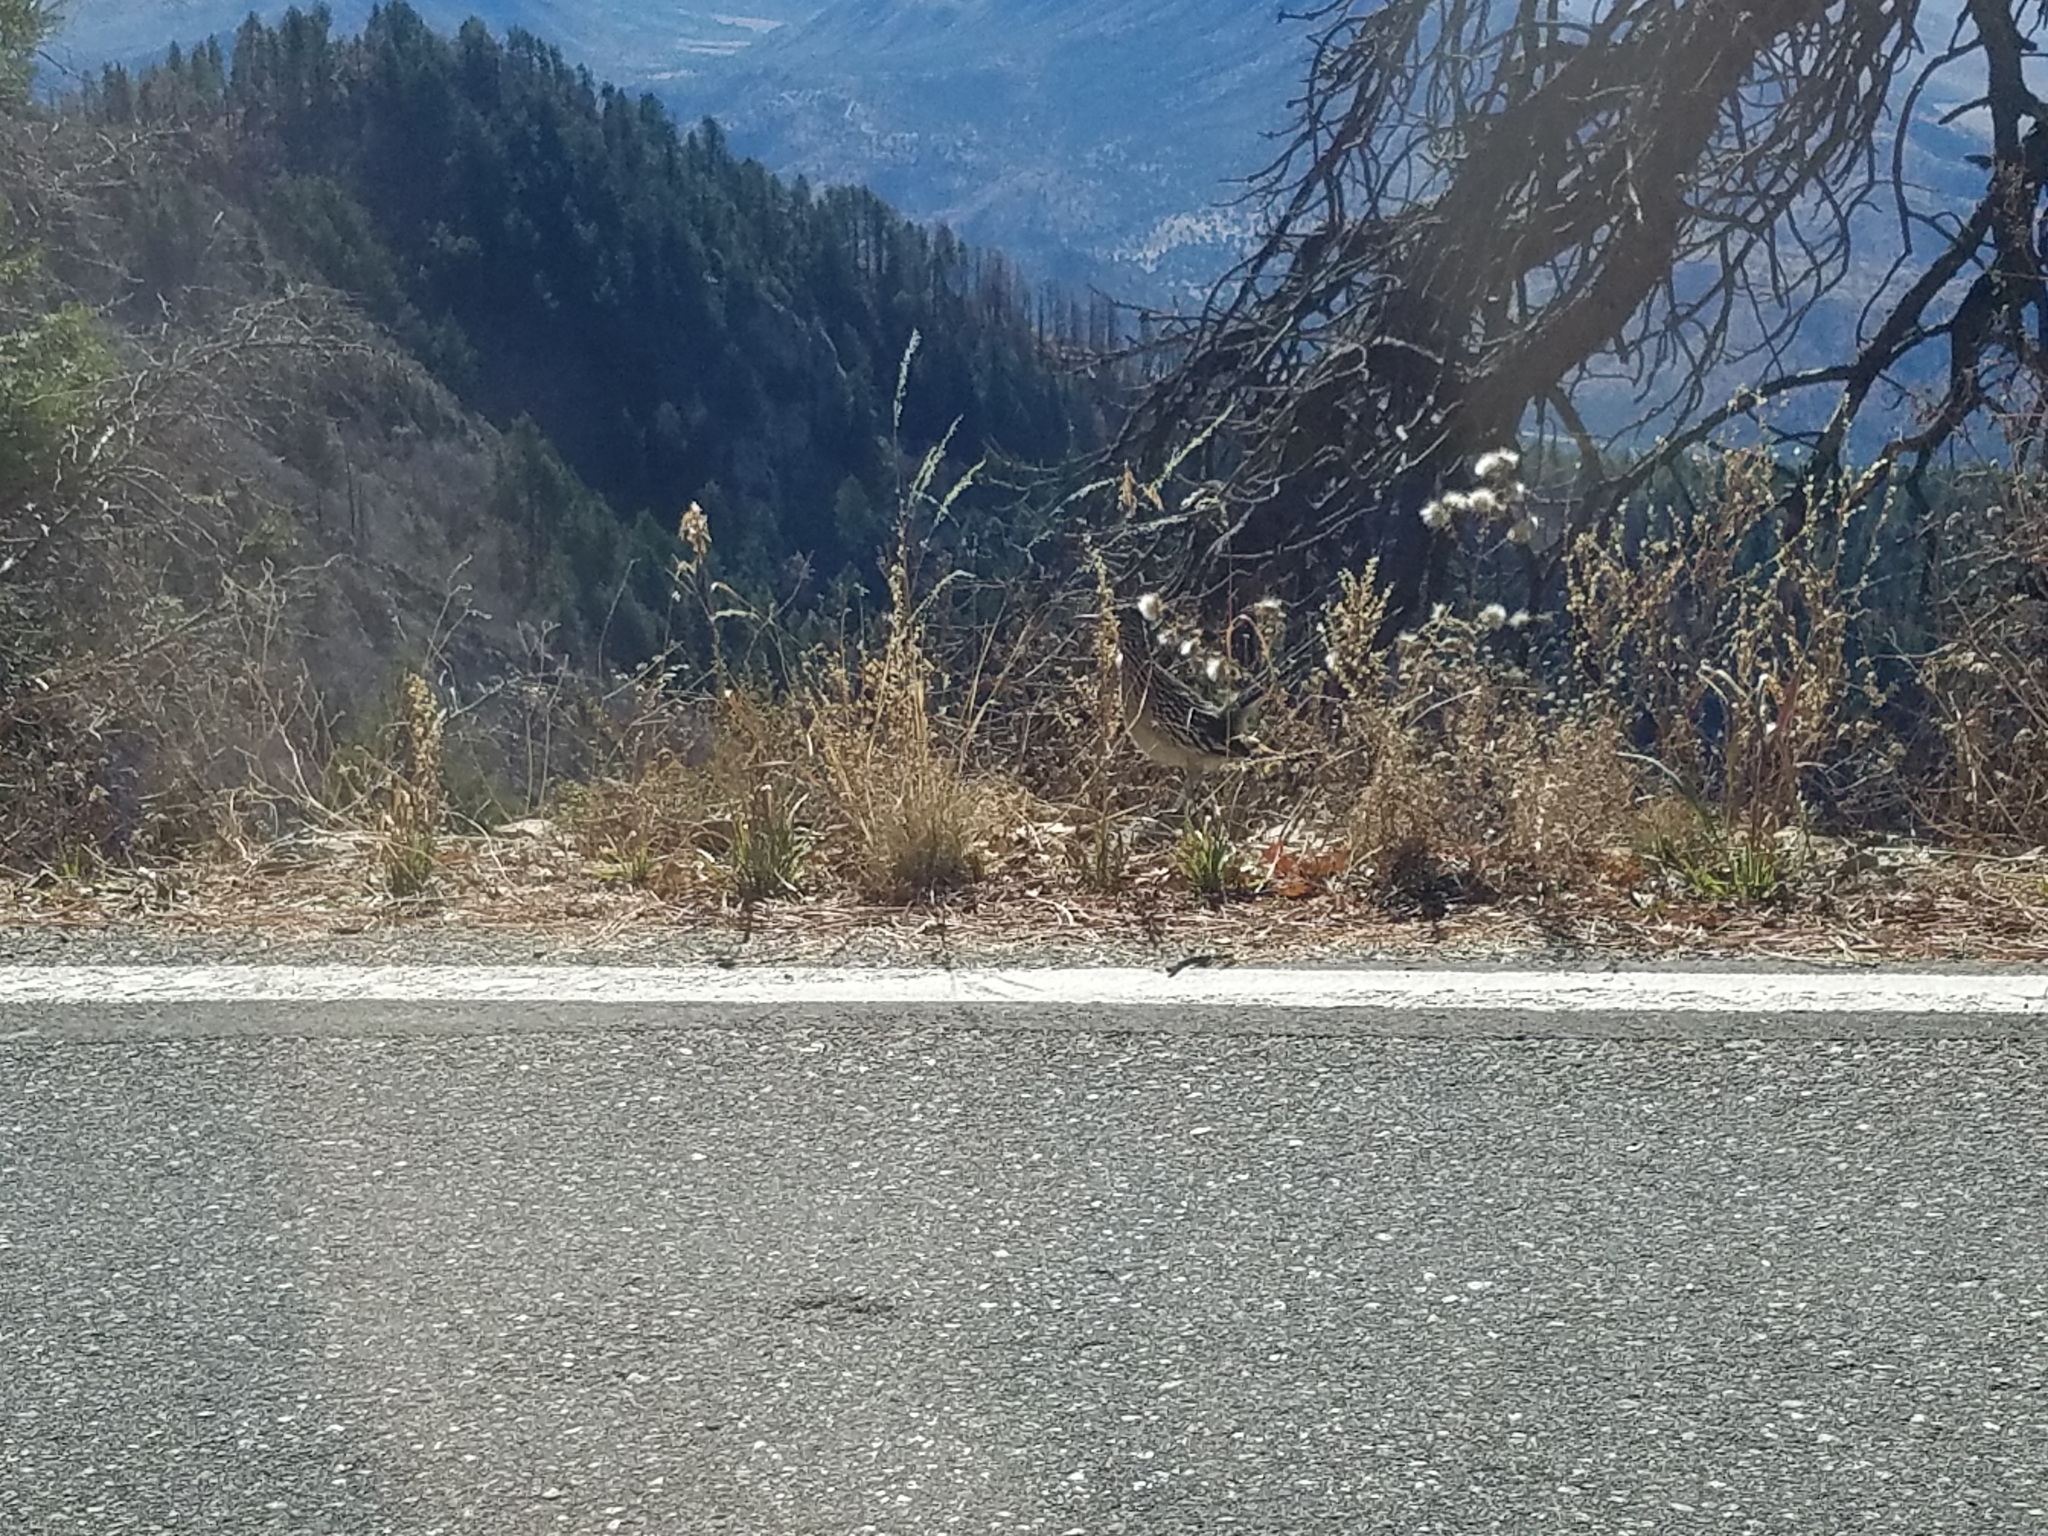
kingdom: Animalia
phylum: Chordata
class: Aves
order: Cuculiformes
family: Cuculidae
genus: Geococcyx
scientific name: Geococcyx californianus
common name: Greater roadrunner
